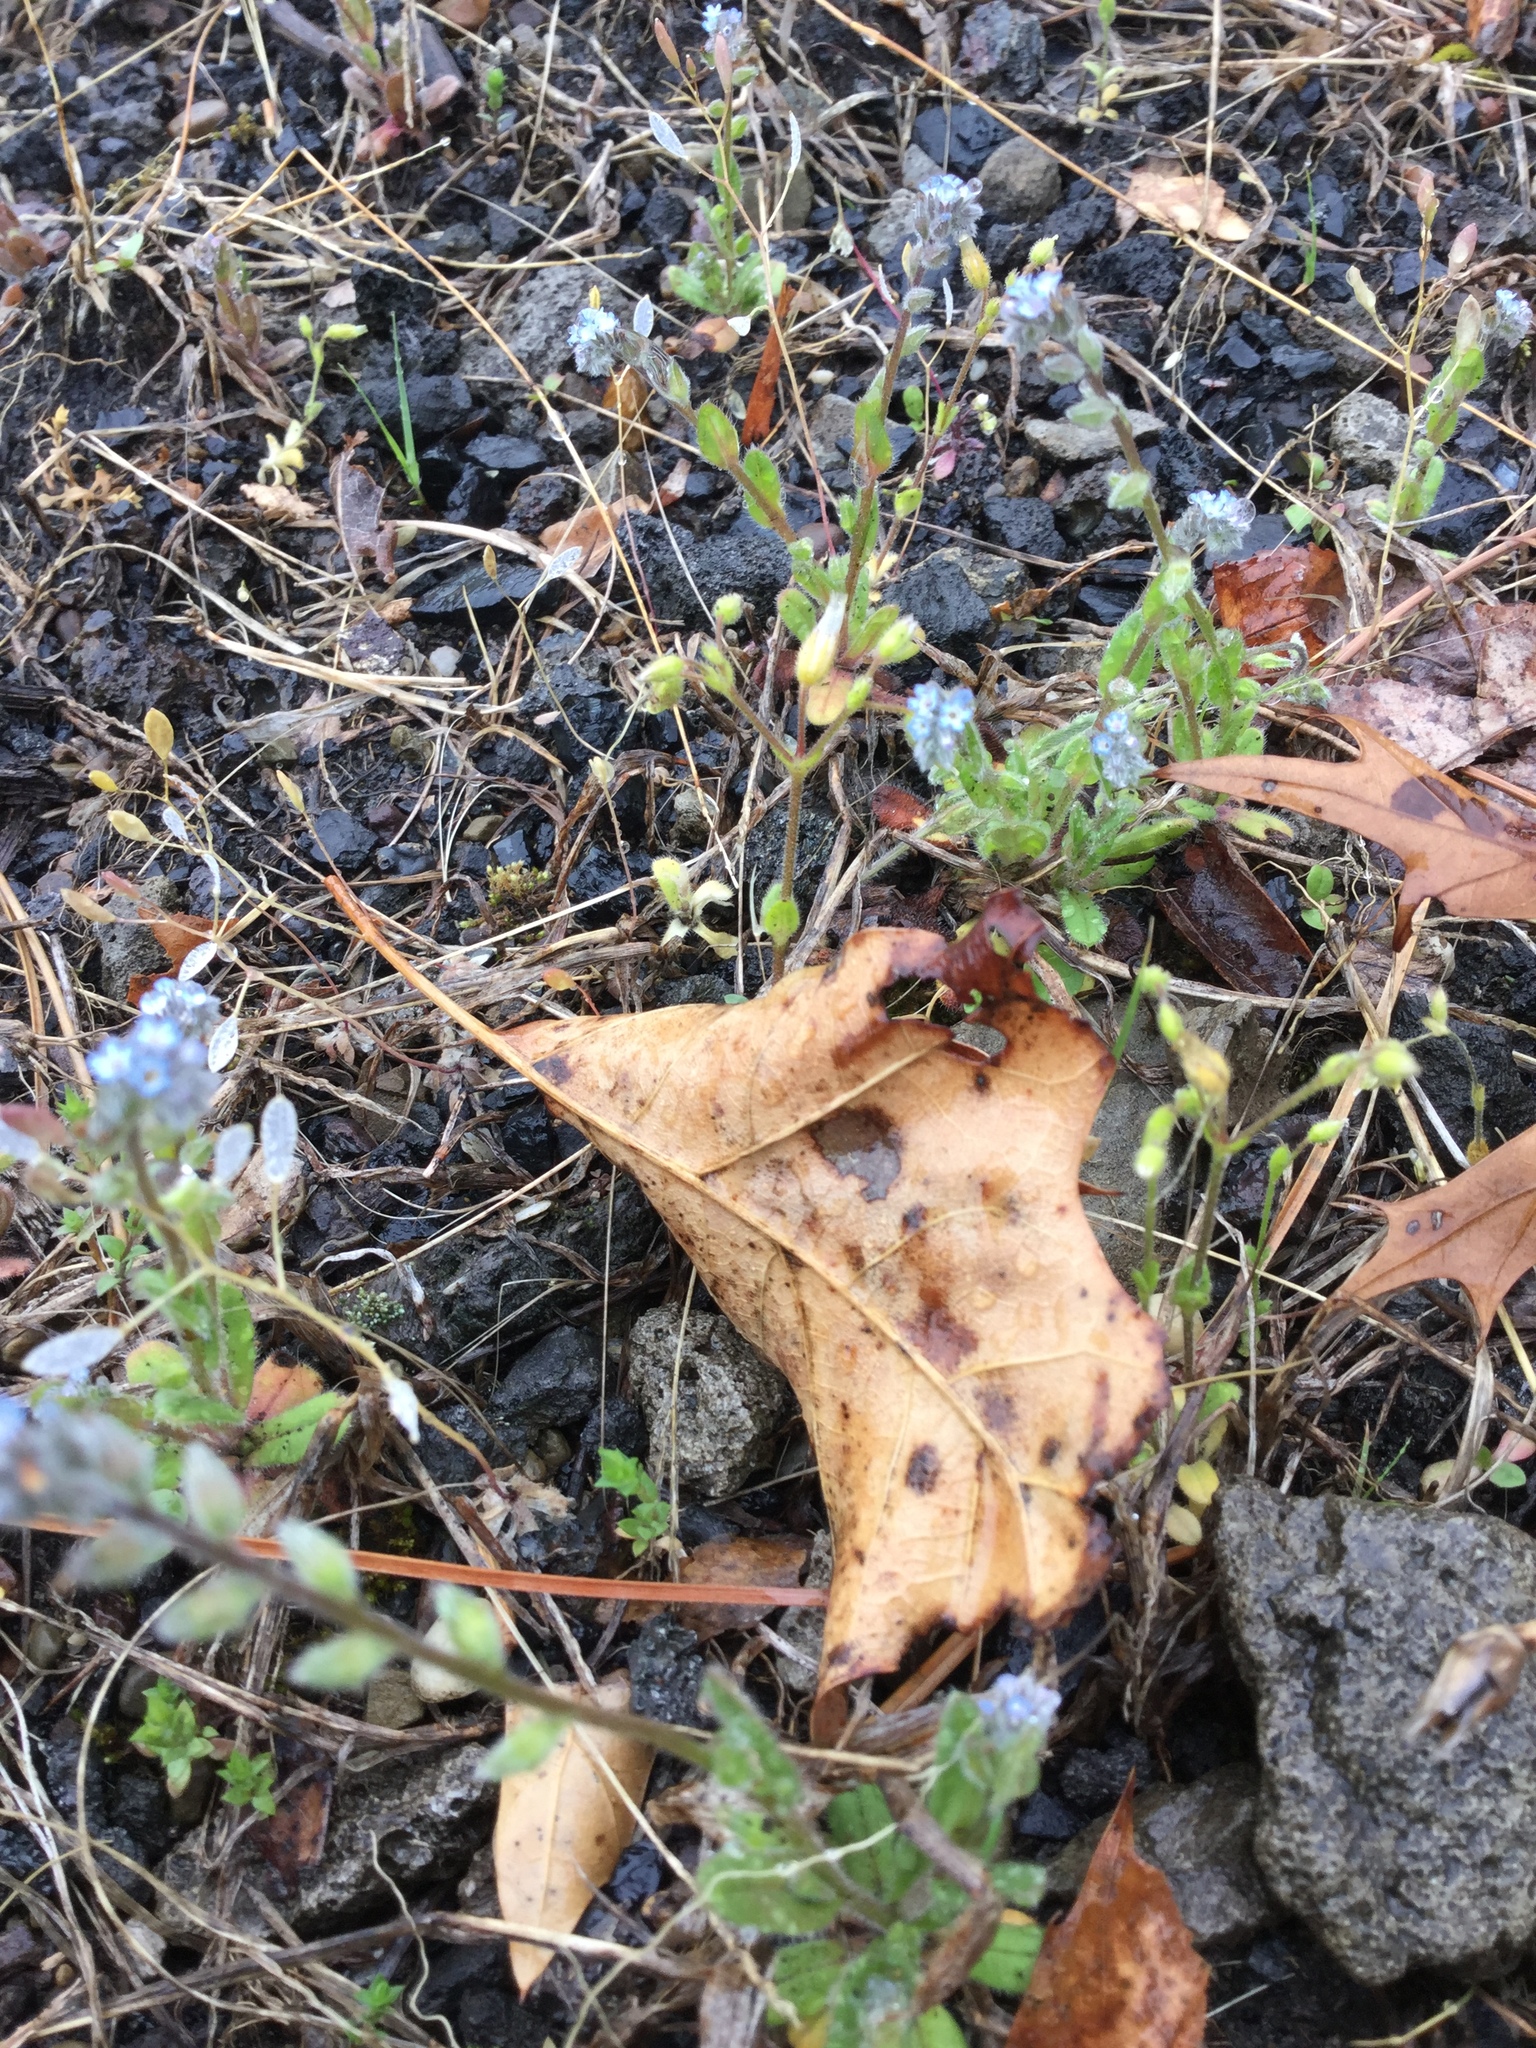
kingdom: Plantae
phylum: Tracheophyta
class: Magnoliopsida
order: Boraginales
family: Boraginaceae
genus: Myosotis
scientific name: Myosotis stricta
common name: Strict forget-me-not
